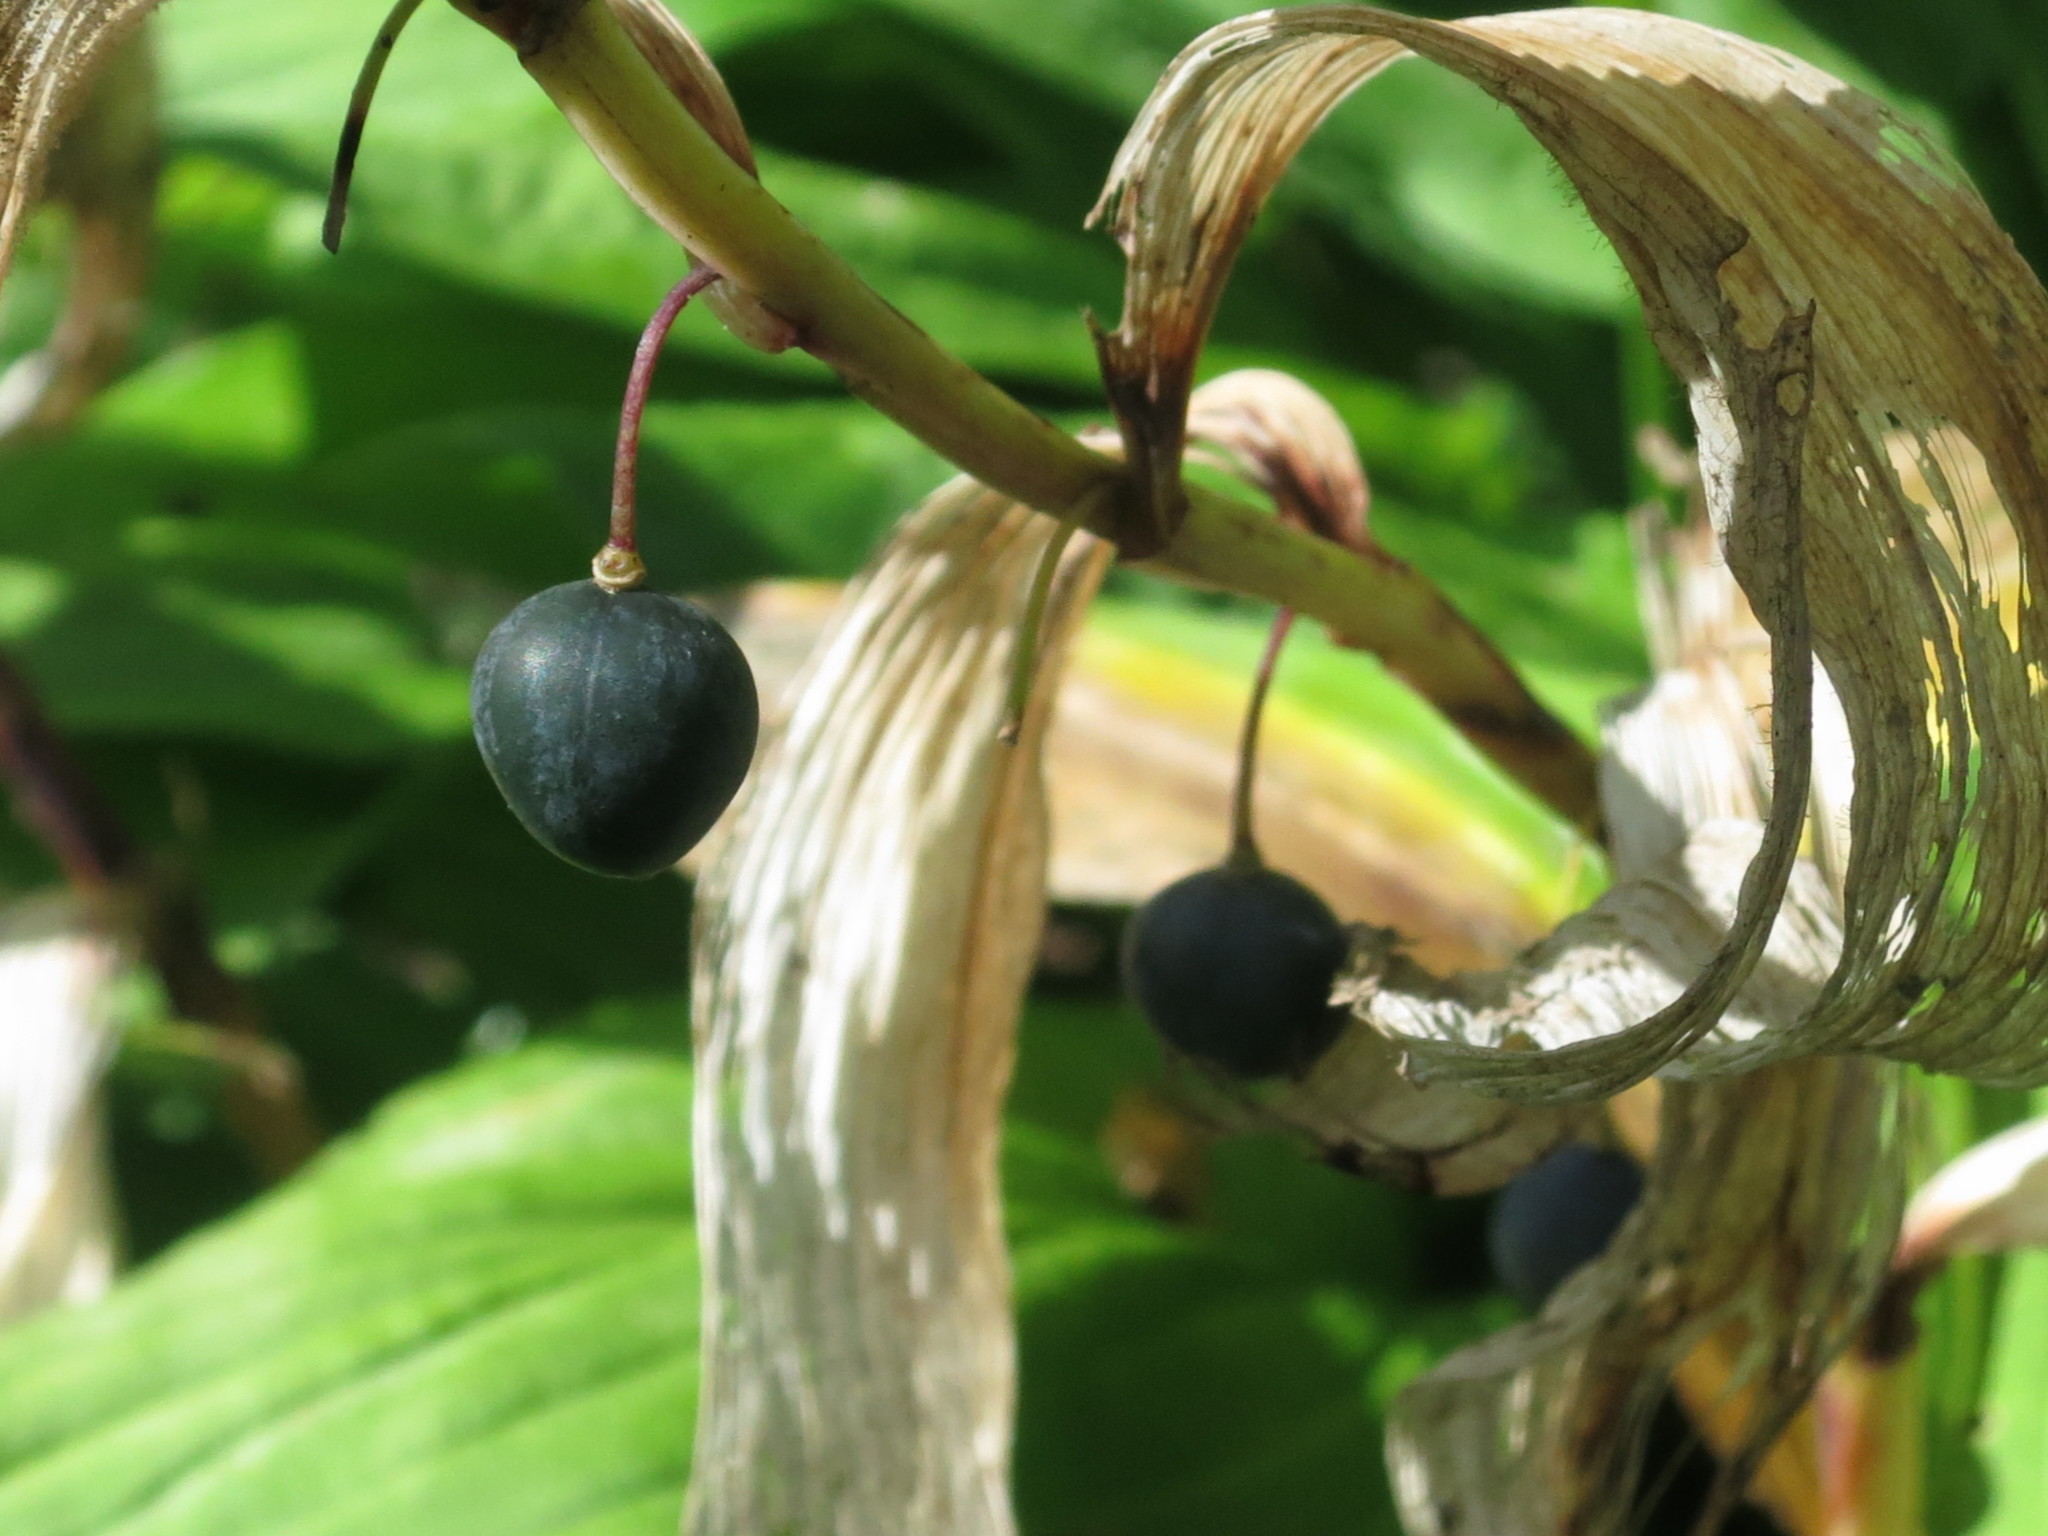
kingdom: Plantae
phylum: Tracheophyta
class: Liliopsida
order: Asparagales
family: Asparagaceae
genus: Polygonatum
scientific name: Polygonatum odoratum
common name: Angular solomon's-seal
